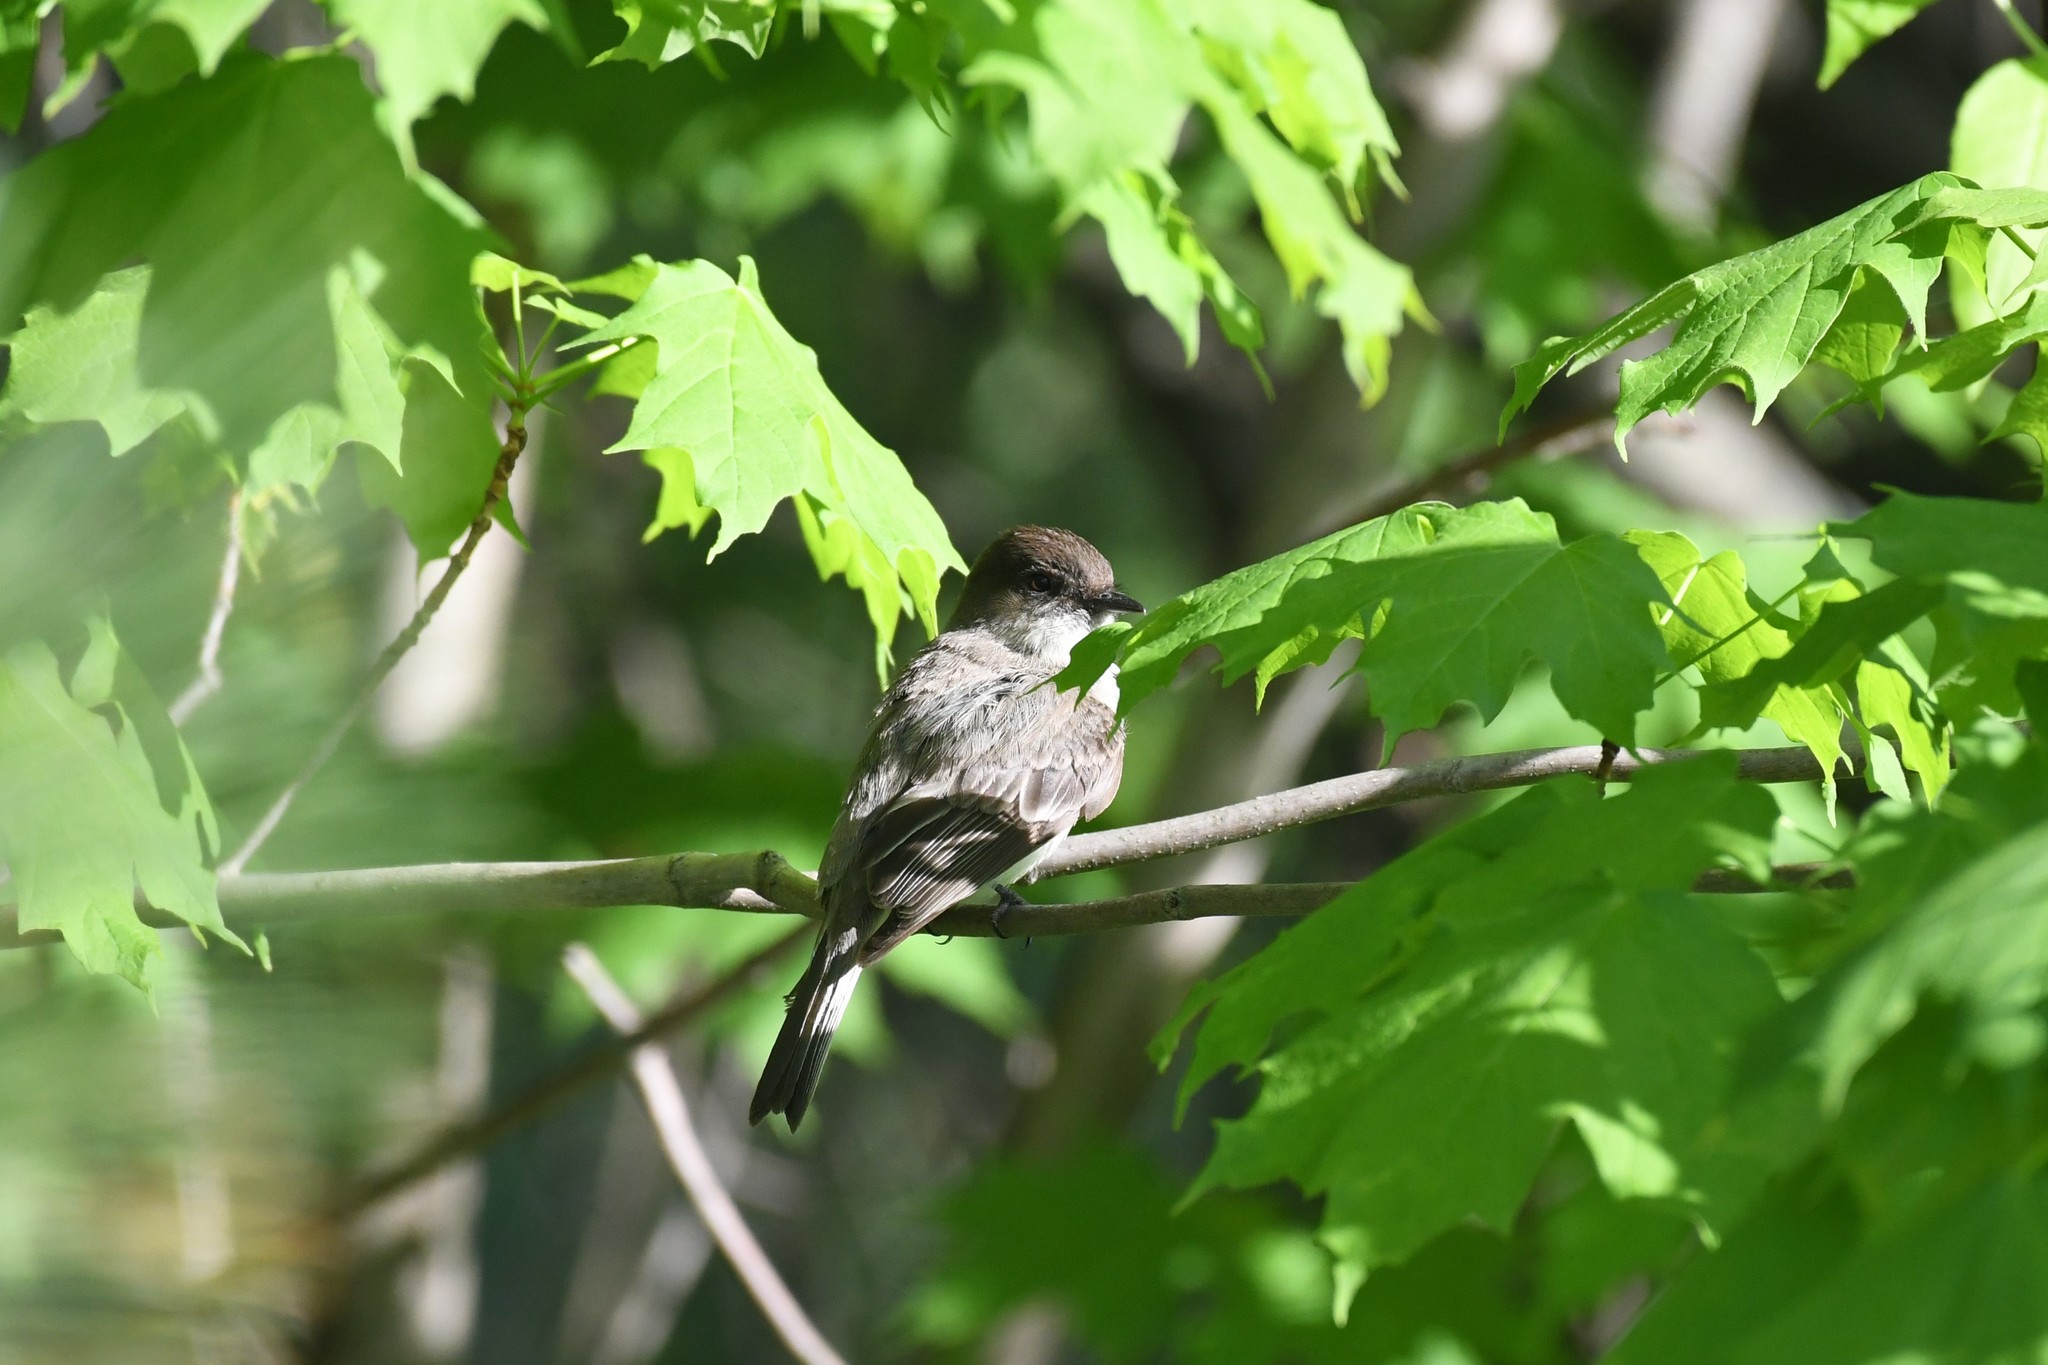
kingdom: Animalia
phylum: Chordata
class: Aves
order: Passeriformes
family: Tyrannidae
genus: Sayornis
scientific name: Sayornis phoebe
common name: Eastern phoebe
